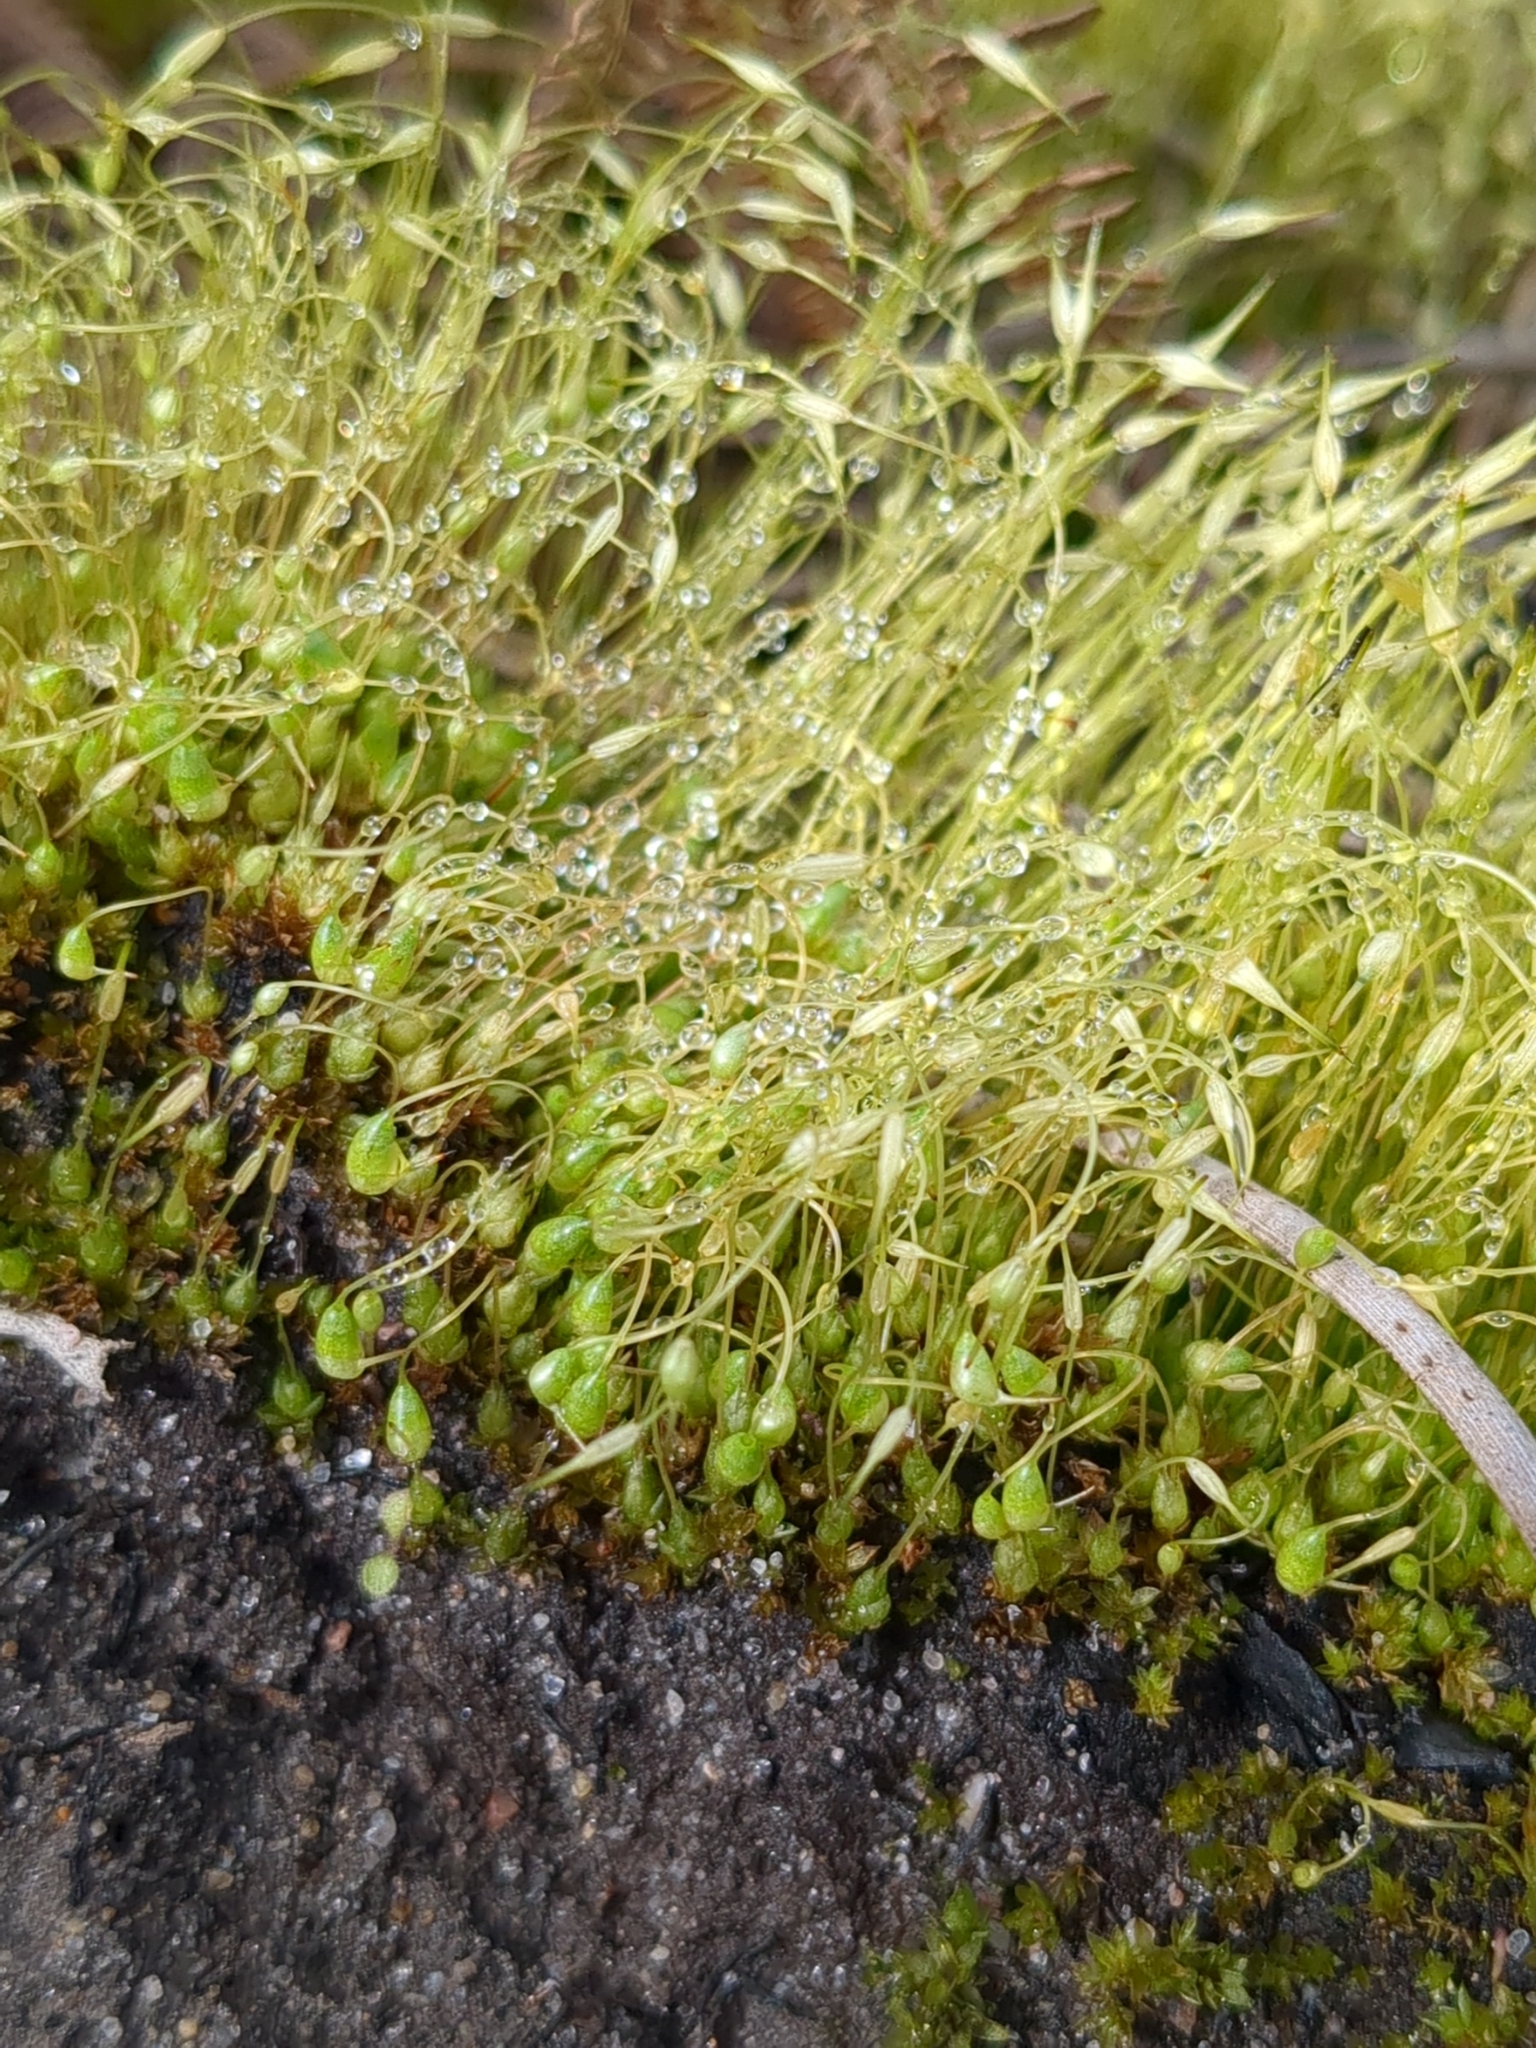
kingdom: Plantae
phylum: Bryophyta
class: Bryopsida
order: Funariales
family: Funariaceae
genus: Funaria
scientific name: Funaria hygrometrica
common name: Common cord moss
